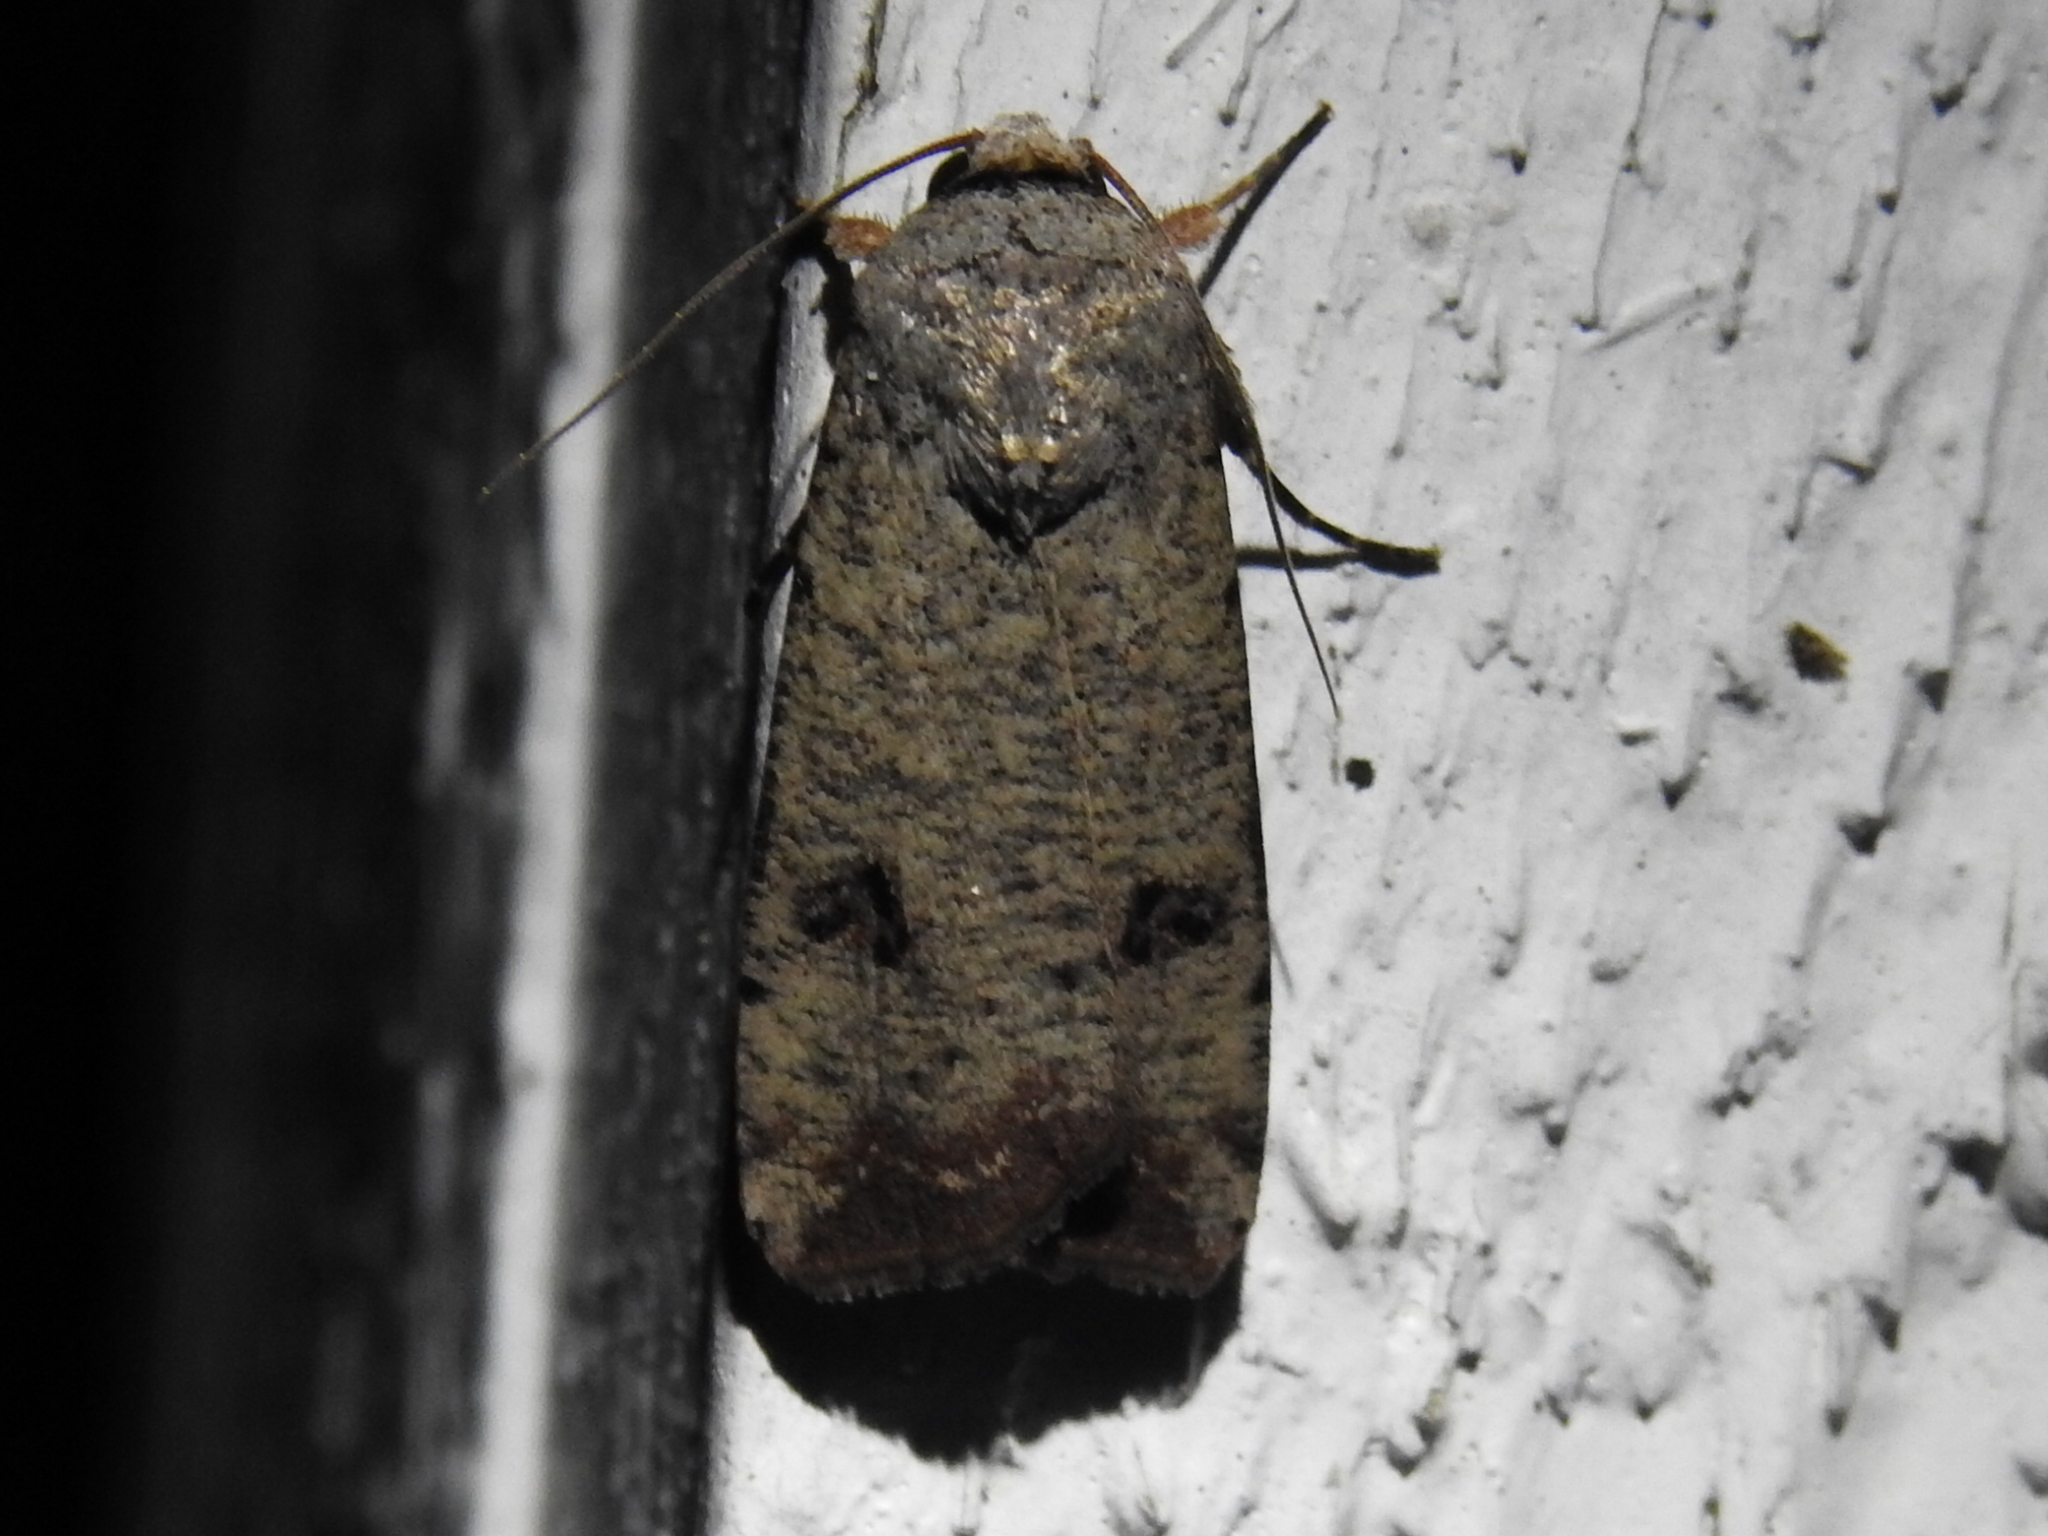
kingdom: Animalia
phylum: Arthropoda
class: Insecta
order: Lepidoptera
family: Noctuidae
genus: Anicla
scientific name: Anicla infecta
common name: Green cutworm
